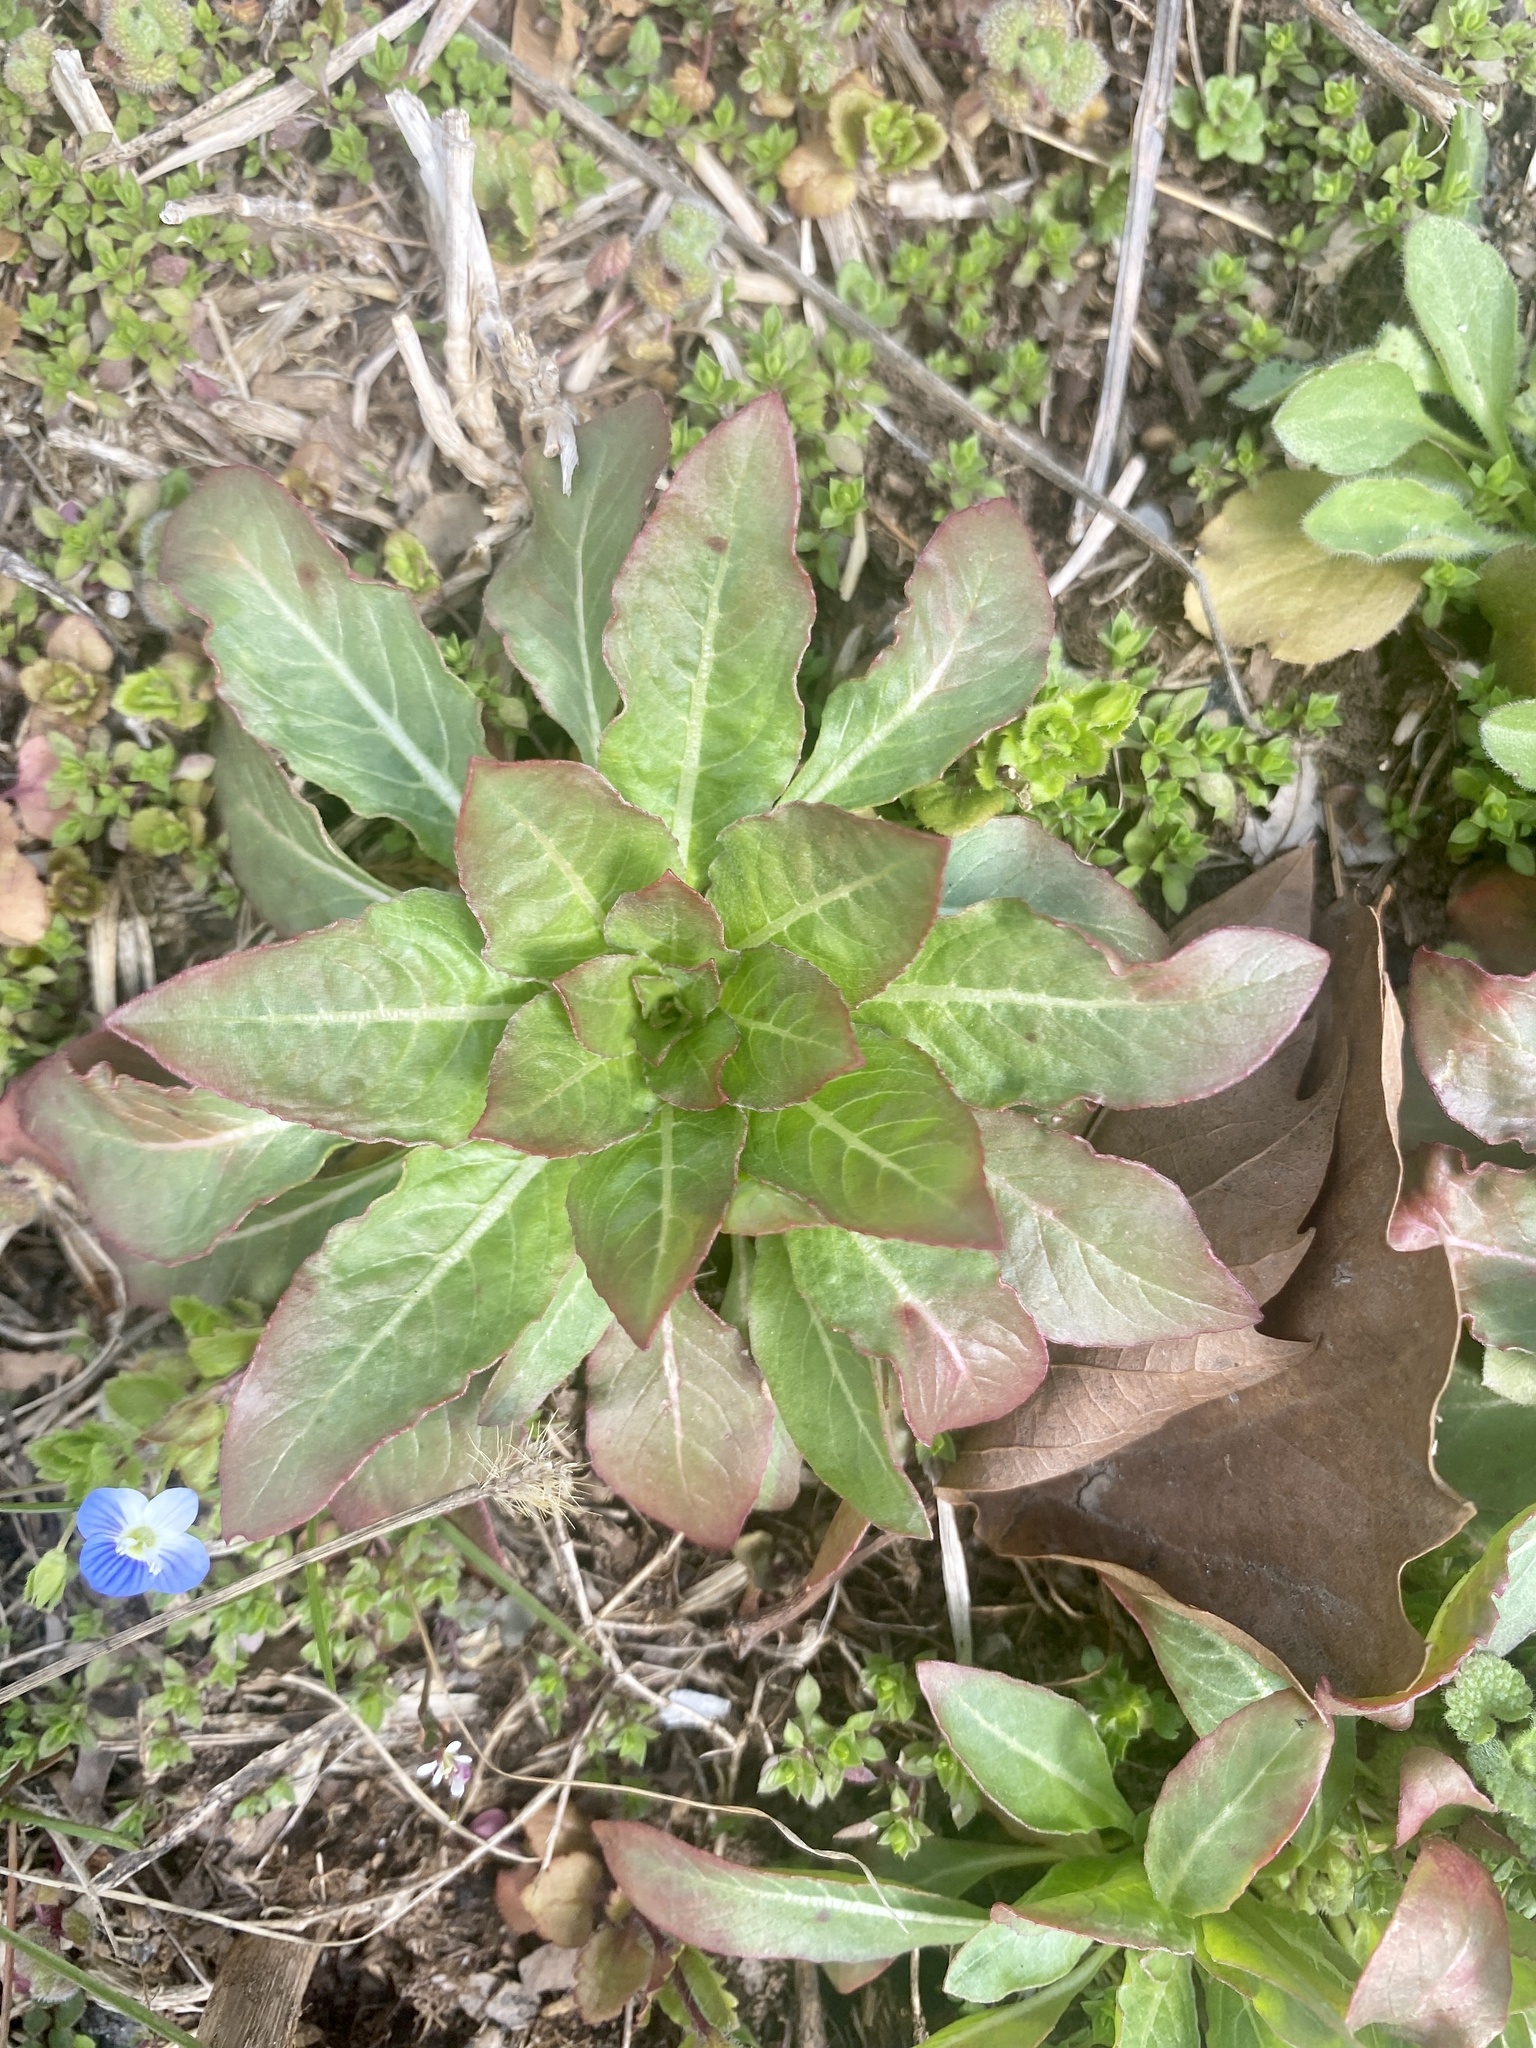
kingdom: Plantae
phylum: Tracheophyta
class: Magnoliopsida
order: Myrtales
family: Onagraceae
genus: Oenothera
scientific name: Oenothera biennis
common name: Common evening-primrose
